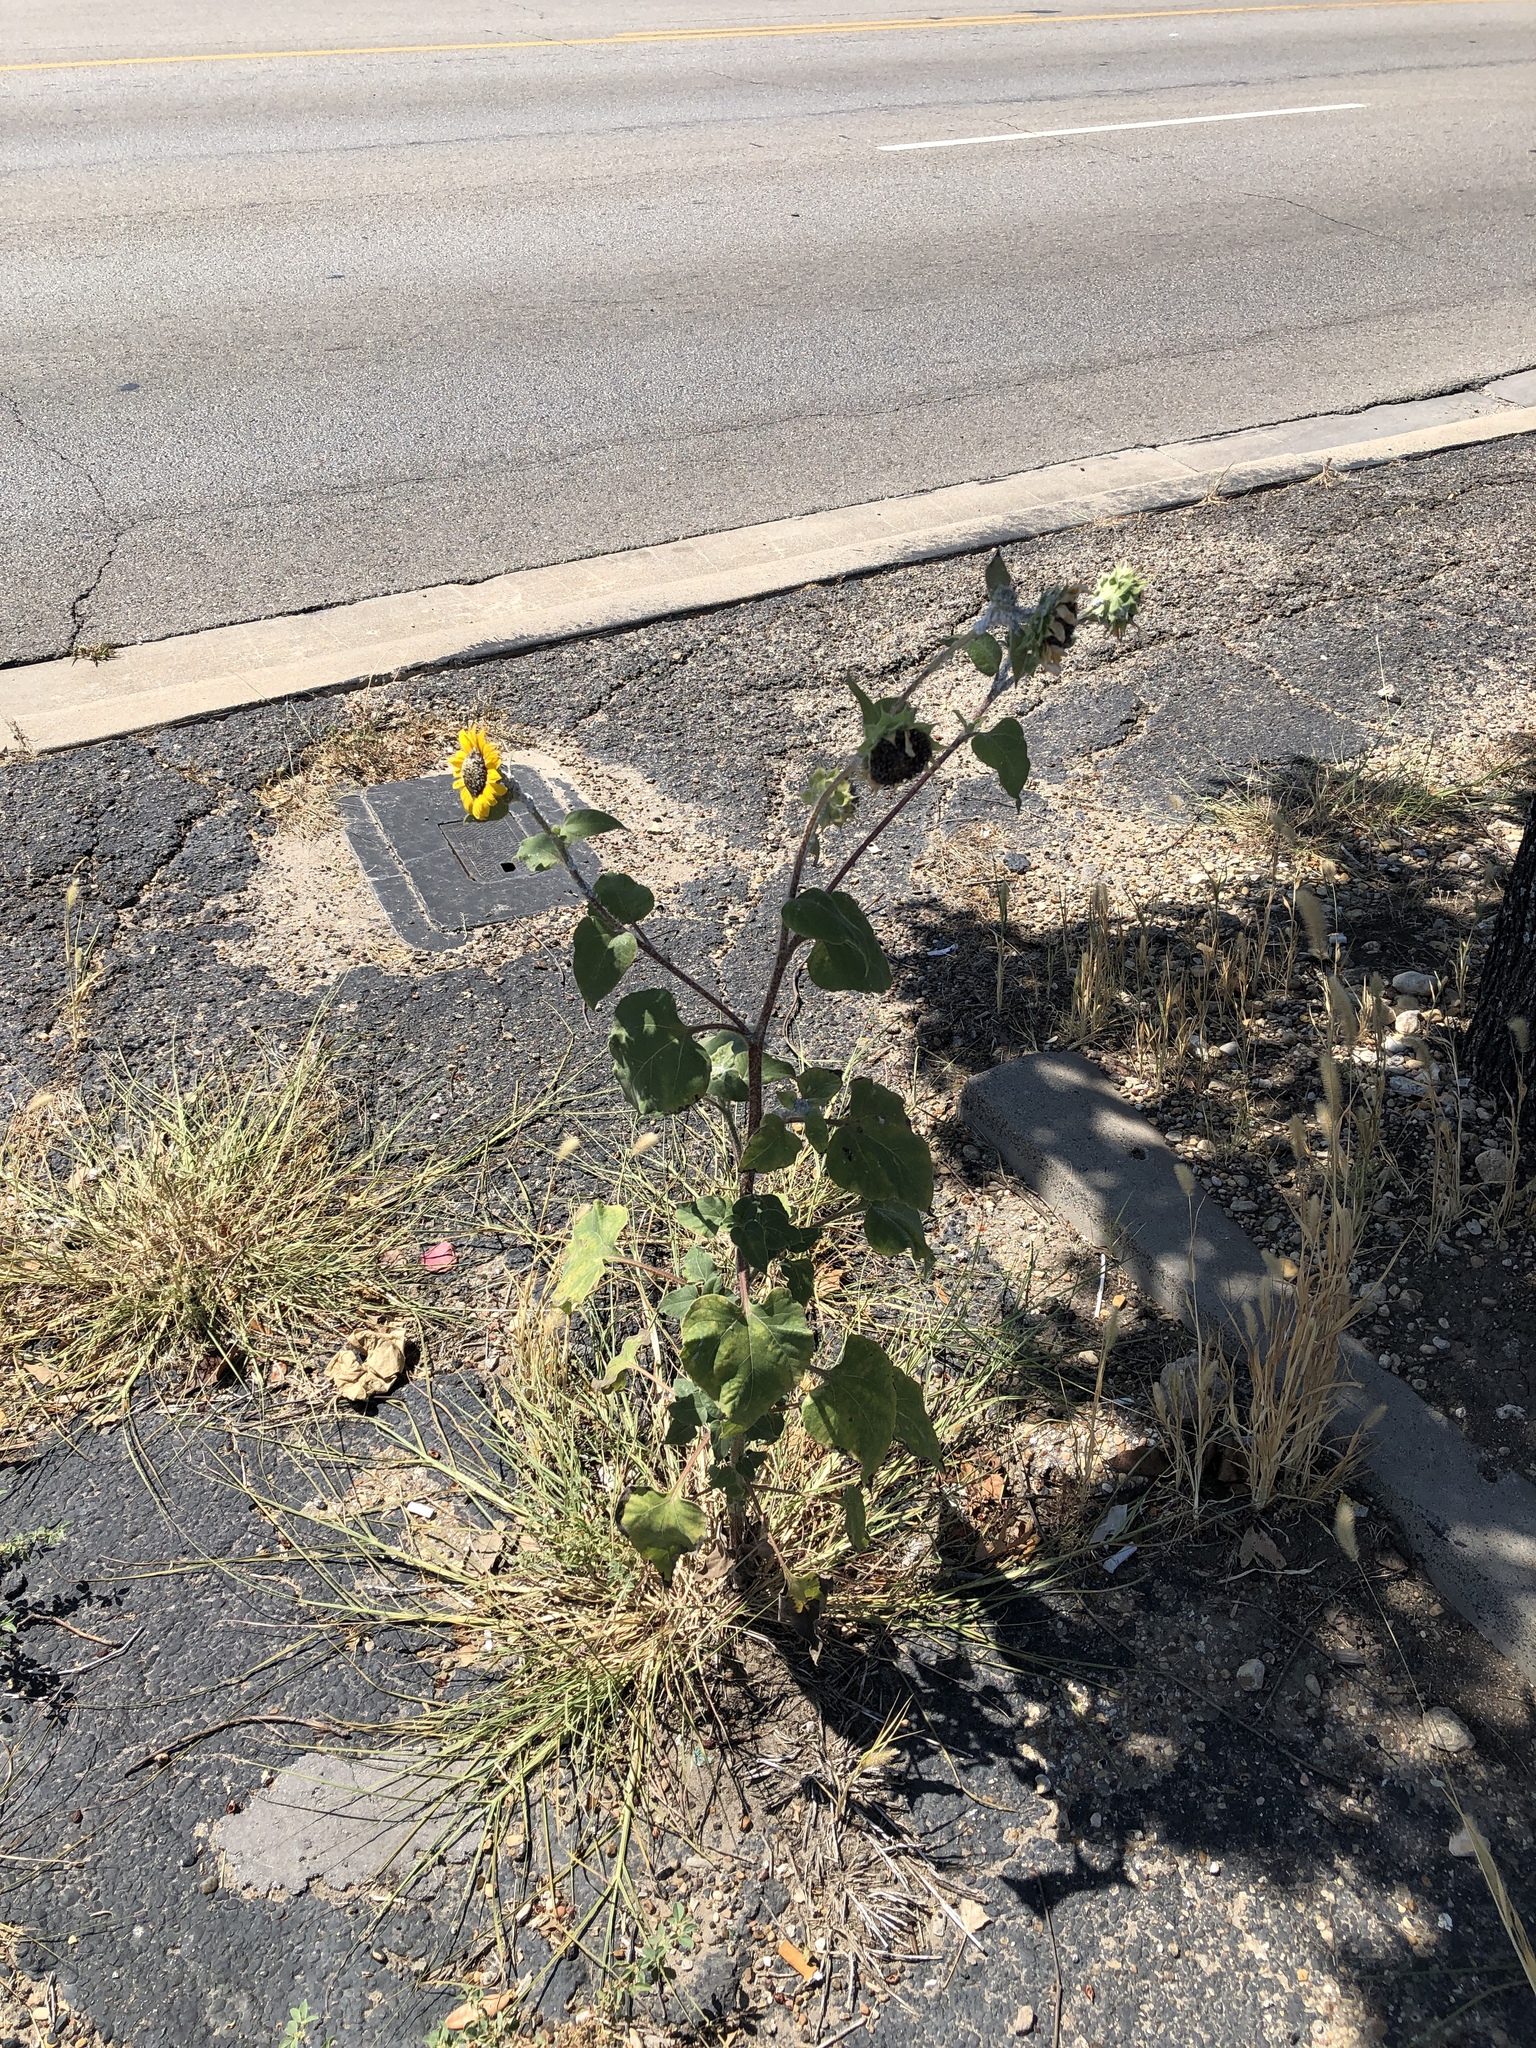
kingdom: Plantae
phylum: Tracheophyta
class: Magnoliopsida
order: Asterales
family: Asteraceae
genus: Helianthus
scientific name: Helianthus annuus
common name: Sunflower
